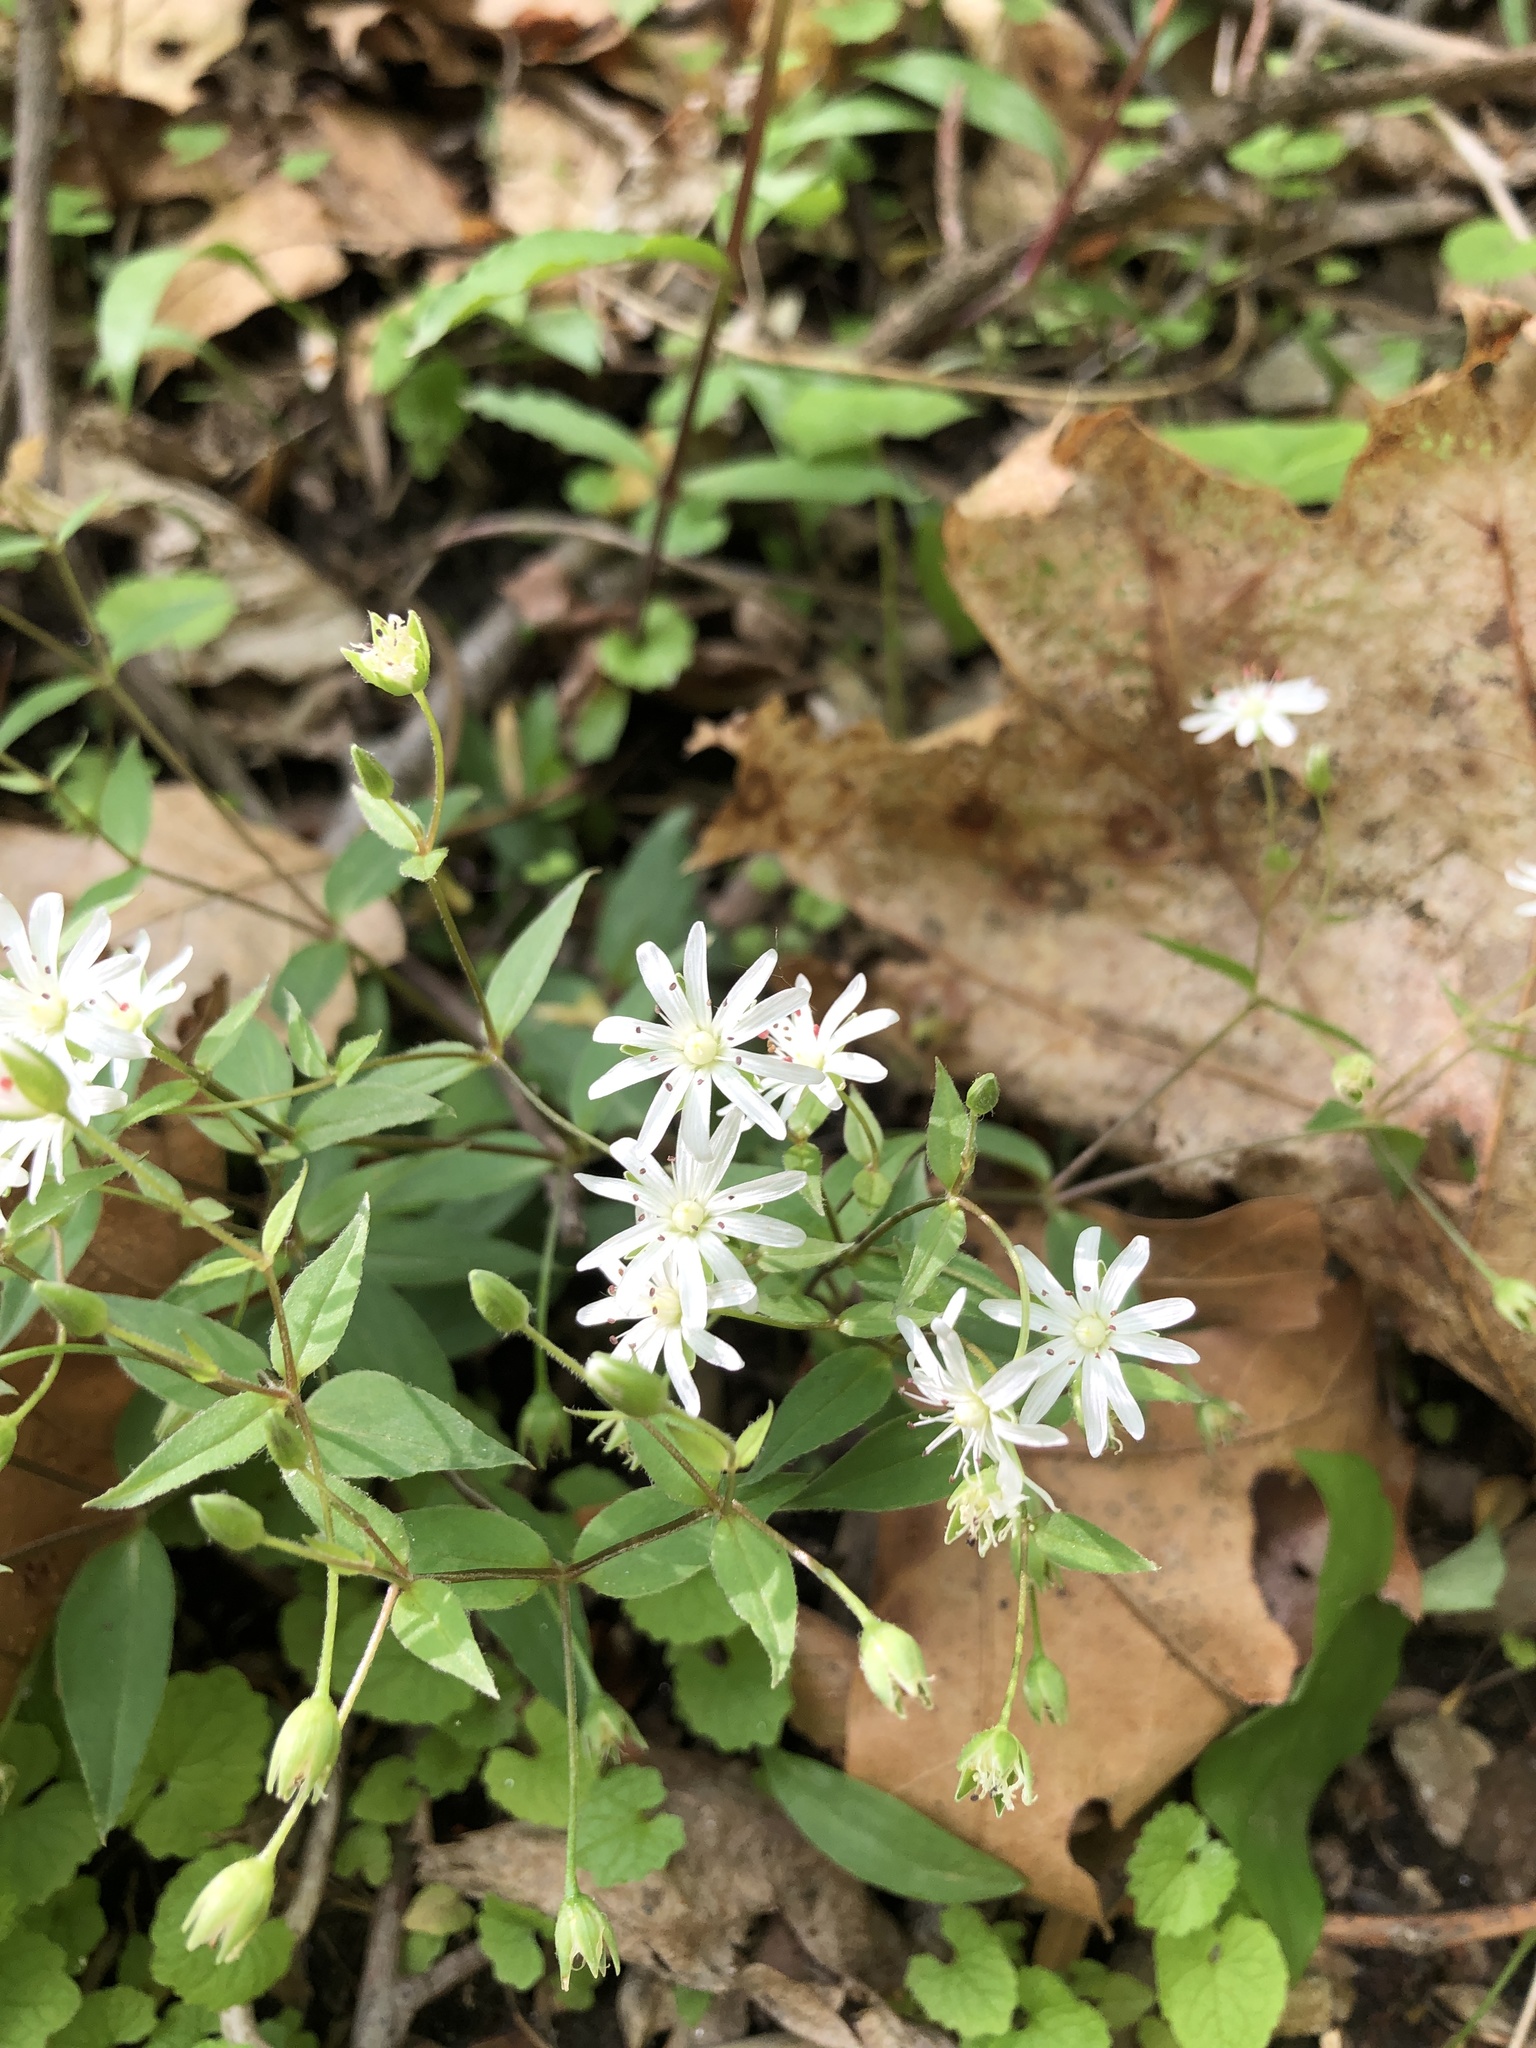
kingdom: Plantae
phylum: Tracheophyta
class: Magnoliopsida
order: Caryophyllales
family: Caryophyllaceae
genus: Stellaria
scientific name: Stellaria pubera
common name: Star chickweed
